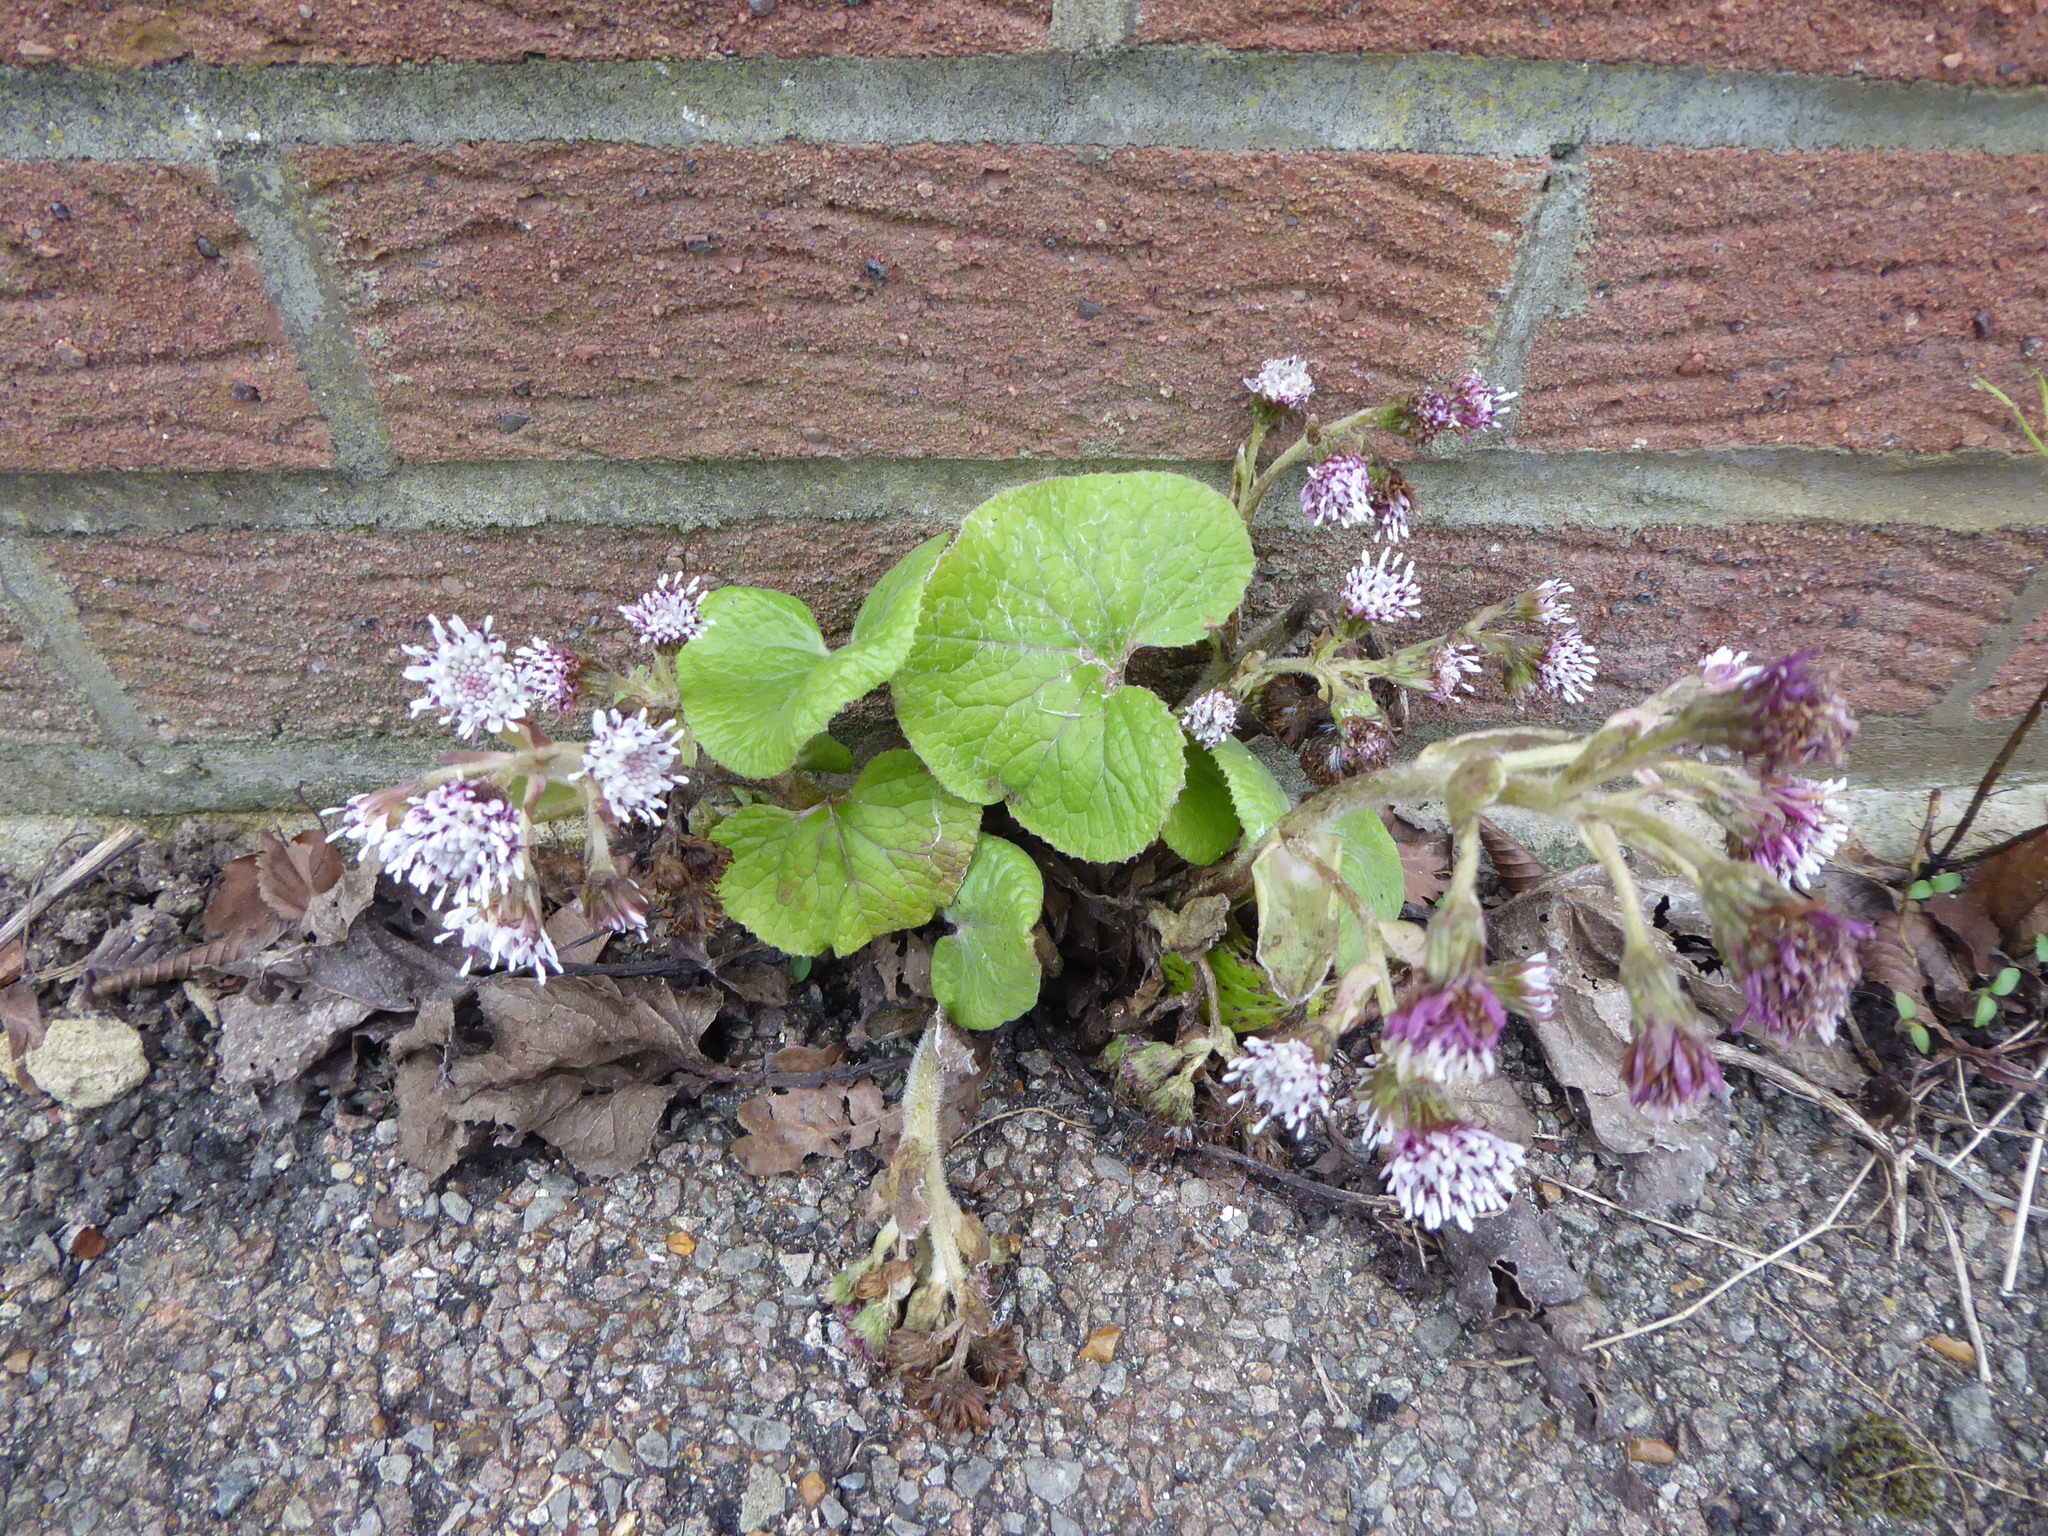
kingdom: Plantae
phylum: Tracheophyta
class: Magnoliopsida
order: Asterales
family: Asteraceae
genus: Petasites
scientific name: Petasites pyrenaicus
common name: Winter heliotrope
